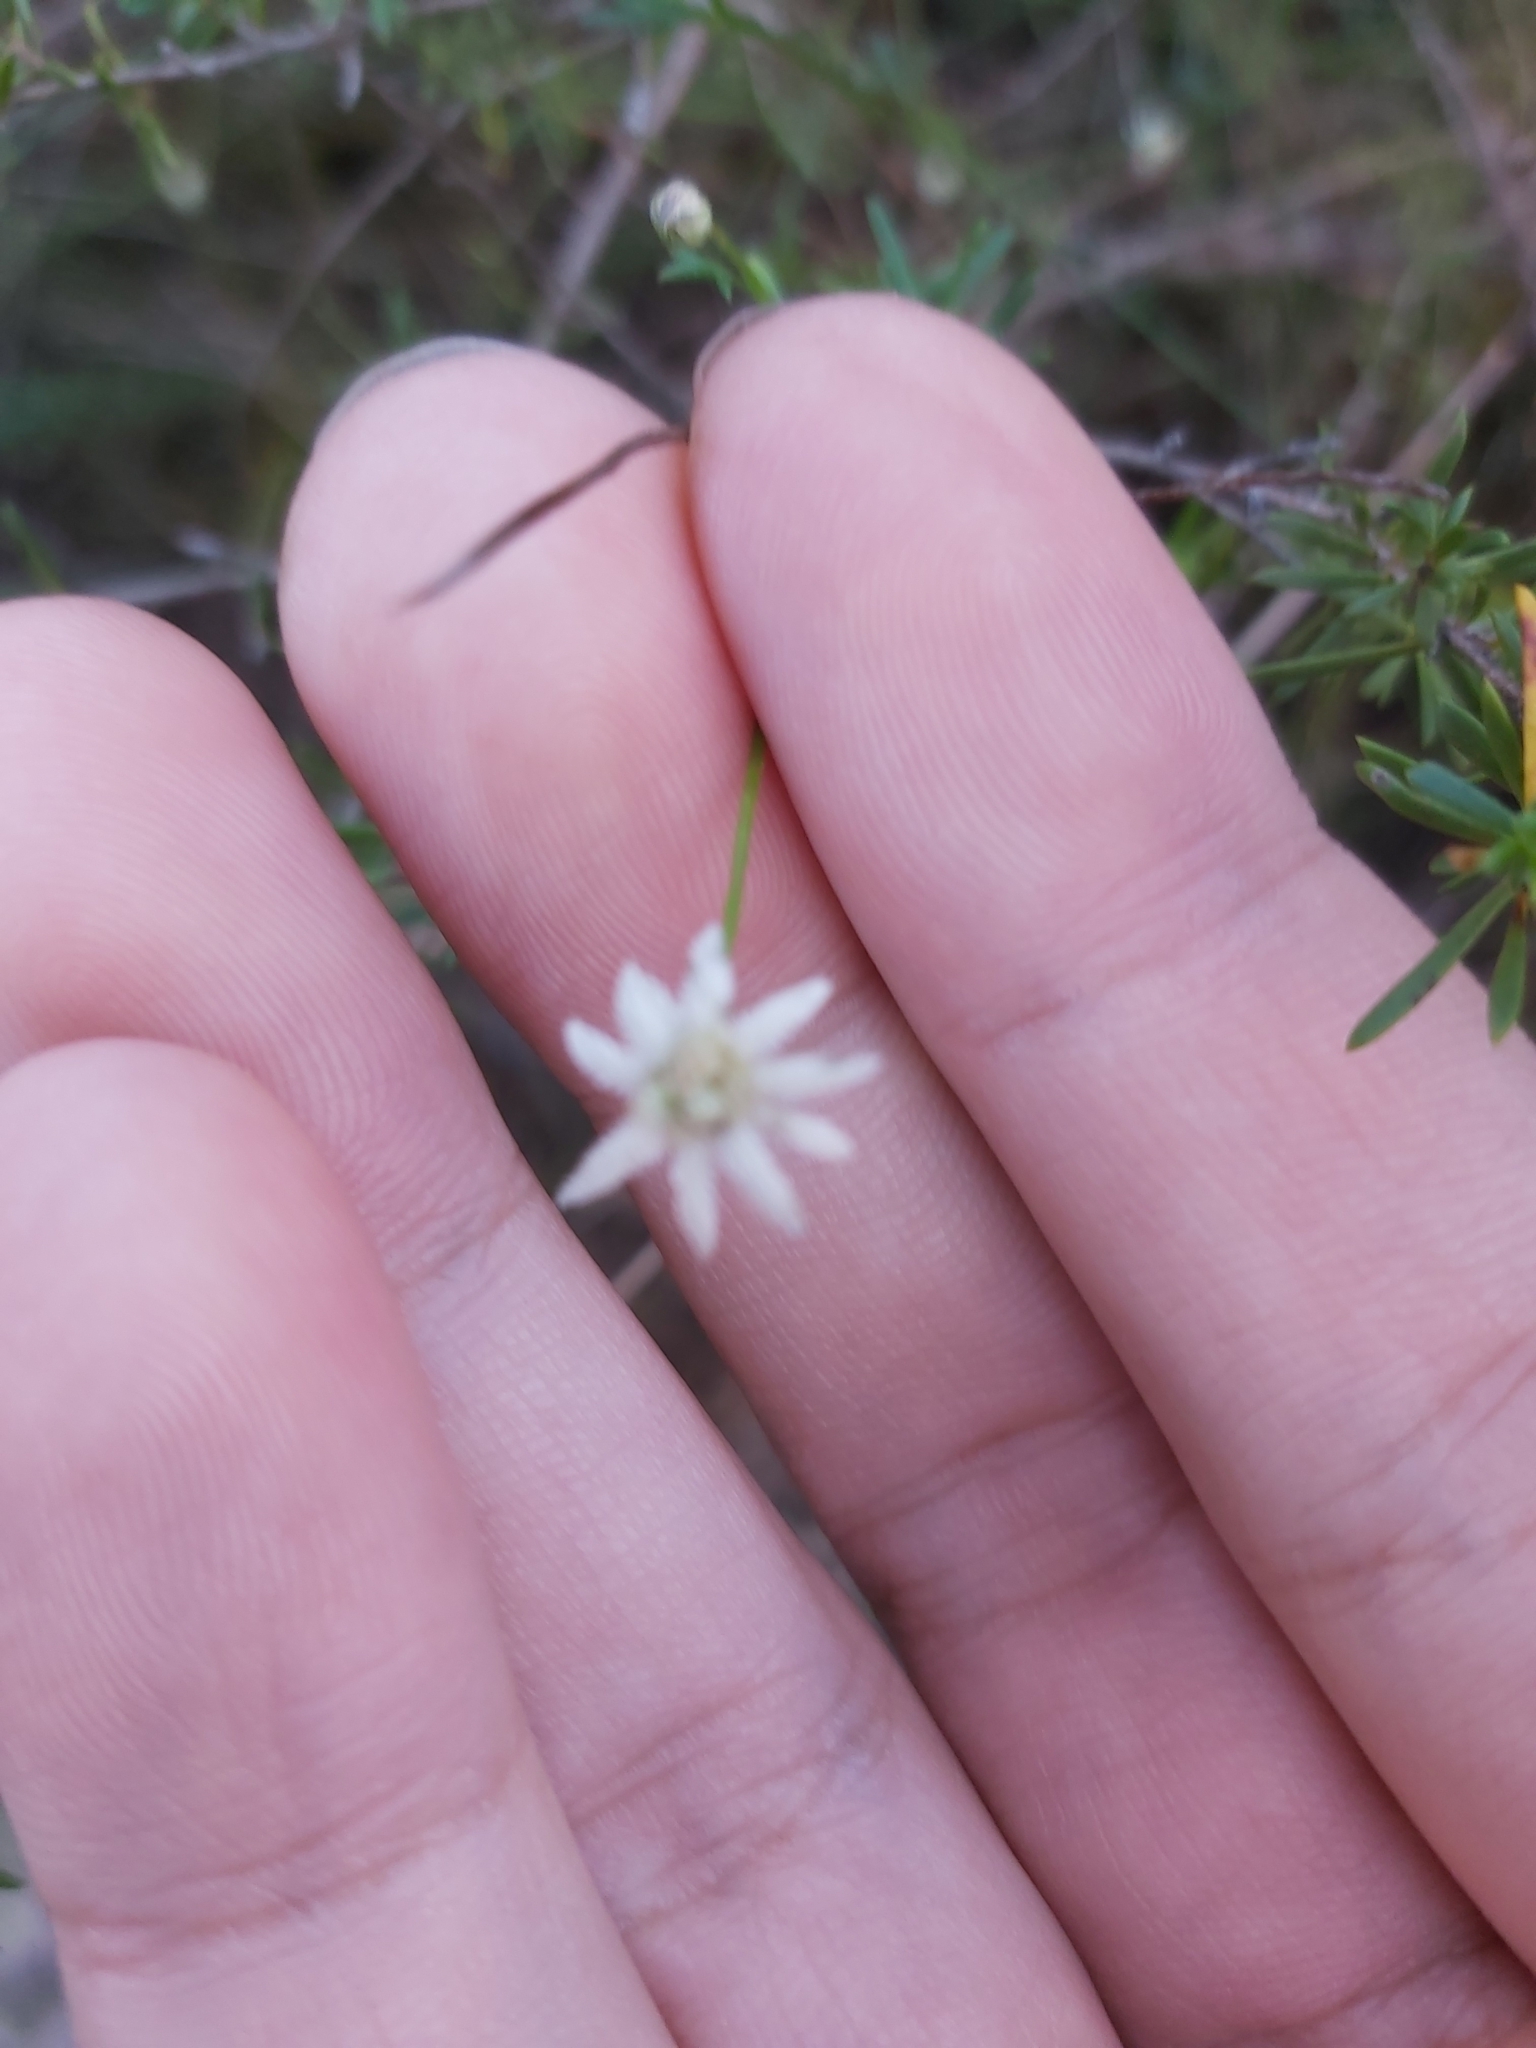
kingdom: Plantae
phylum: Tracheophyta
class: Magnoliopsida
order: Apiales
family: Apiaceae
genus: Actinotus
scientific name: Actinotus minor
